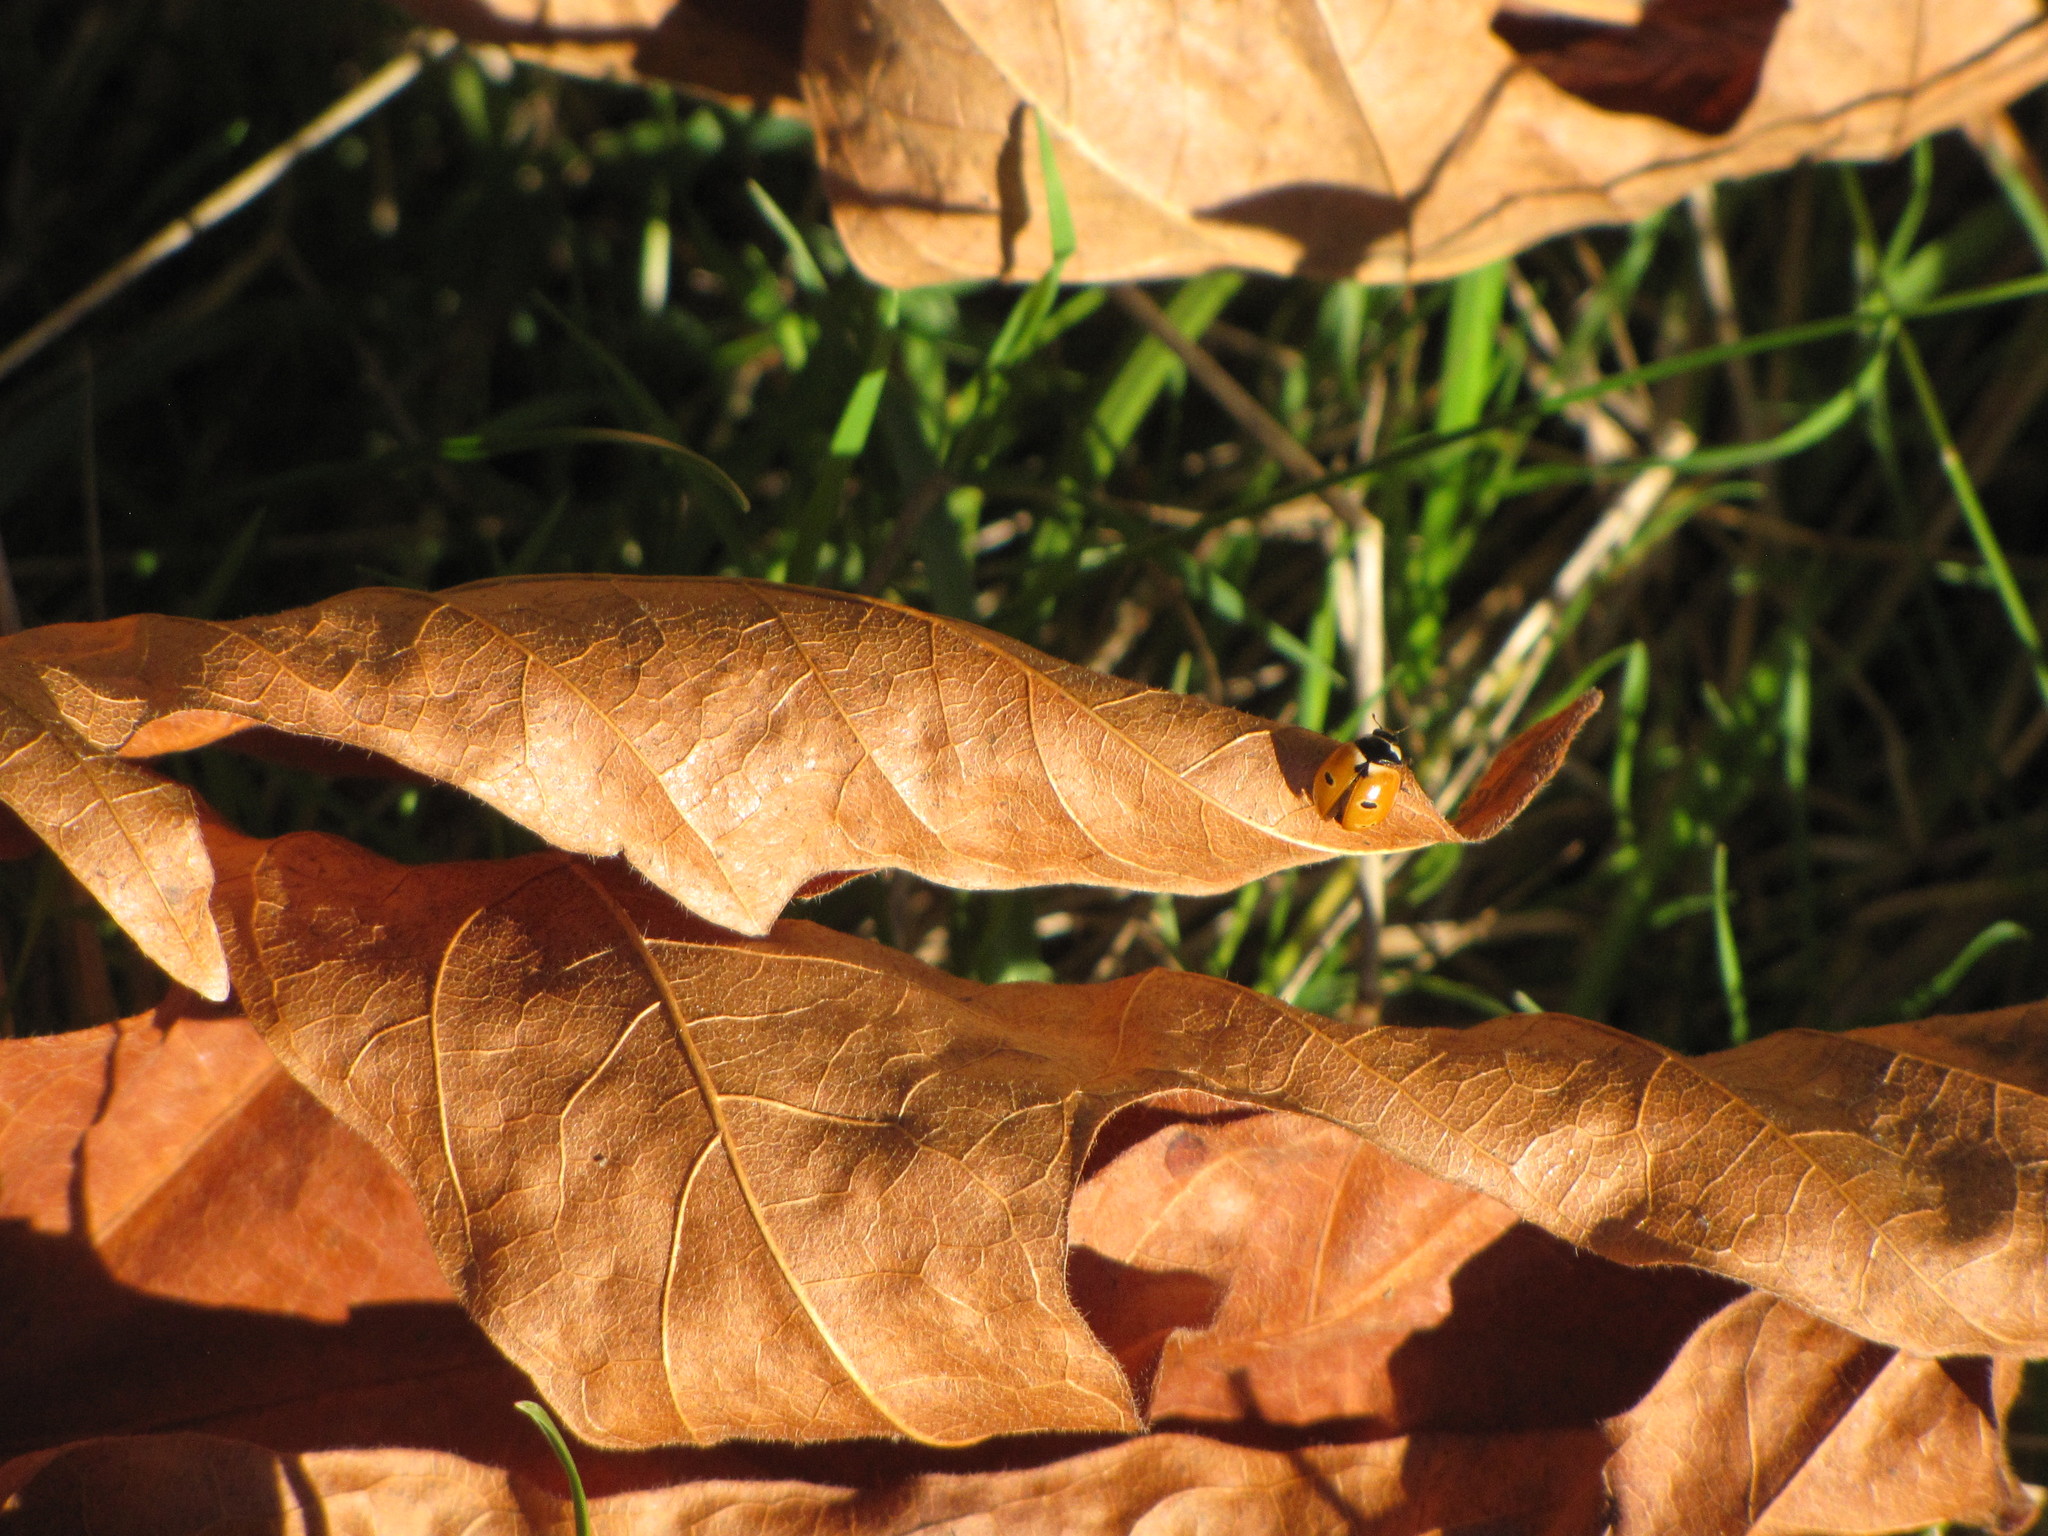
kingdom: Animalia
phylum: Arthropoda
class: Insecta
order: Coleoptera
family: Coccinellidae
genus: Coccinella
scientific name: Coccinella trifasciata
